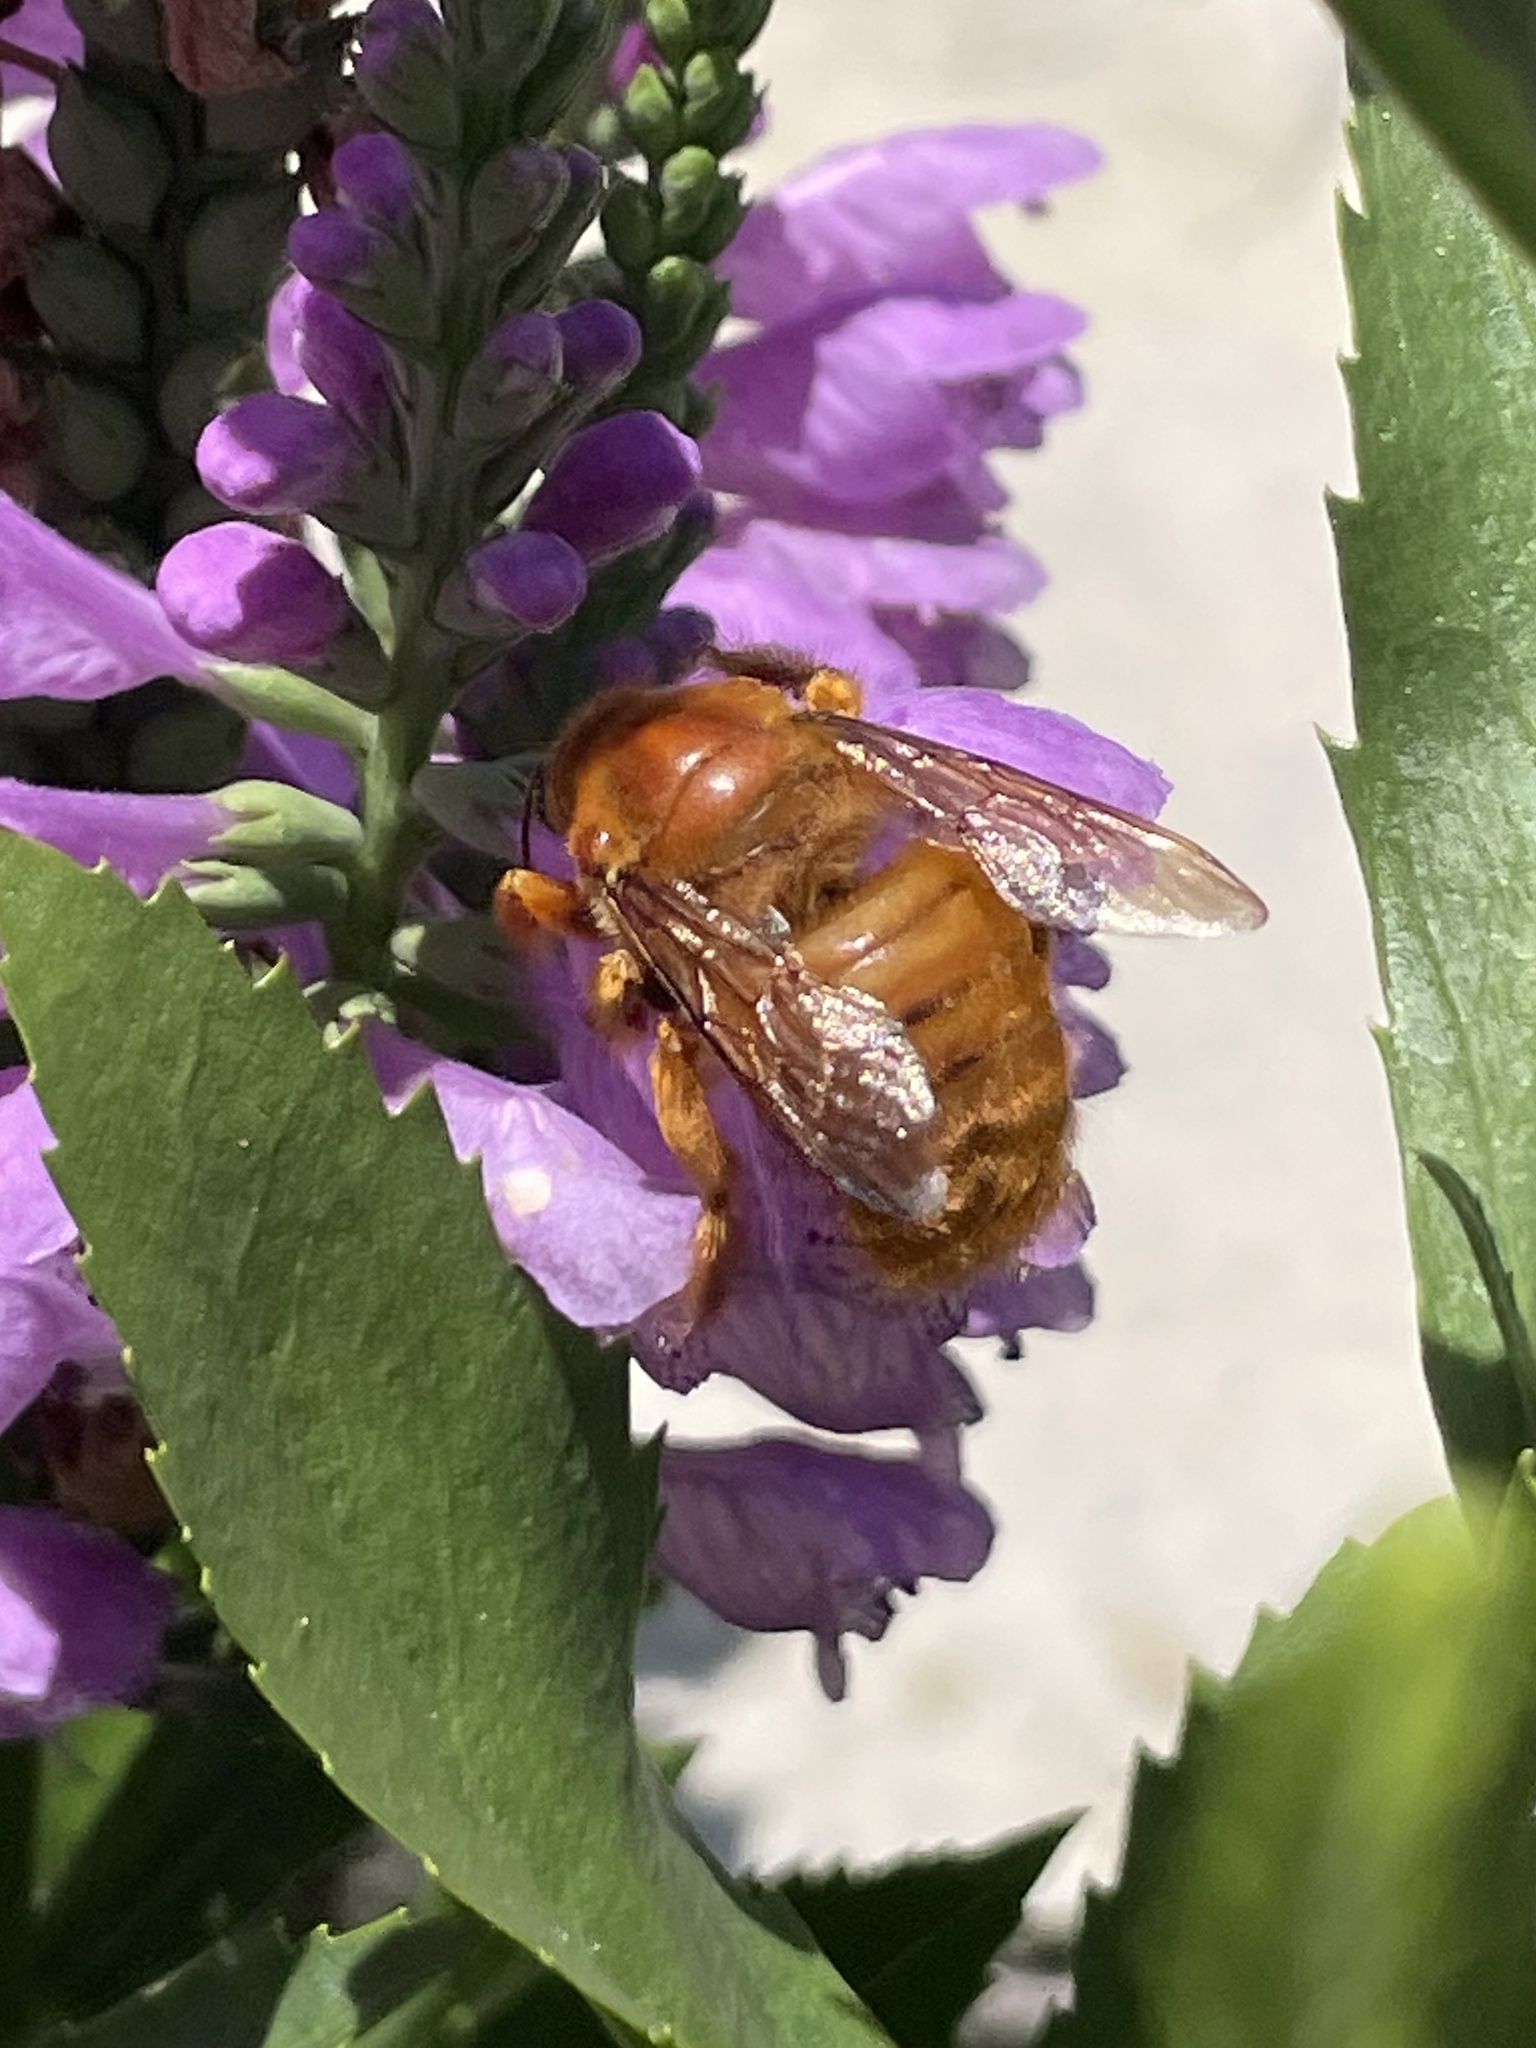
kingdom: Animalia
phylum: Arthropoda
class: Insecta
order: Hymenoptera
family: Apidae
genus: Xylocopa
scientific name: Xylocopa griswoldi
